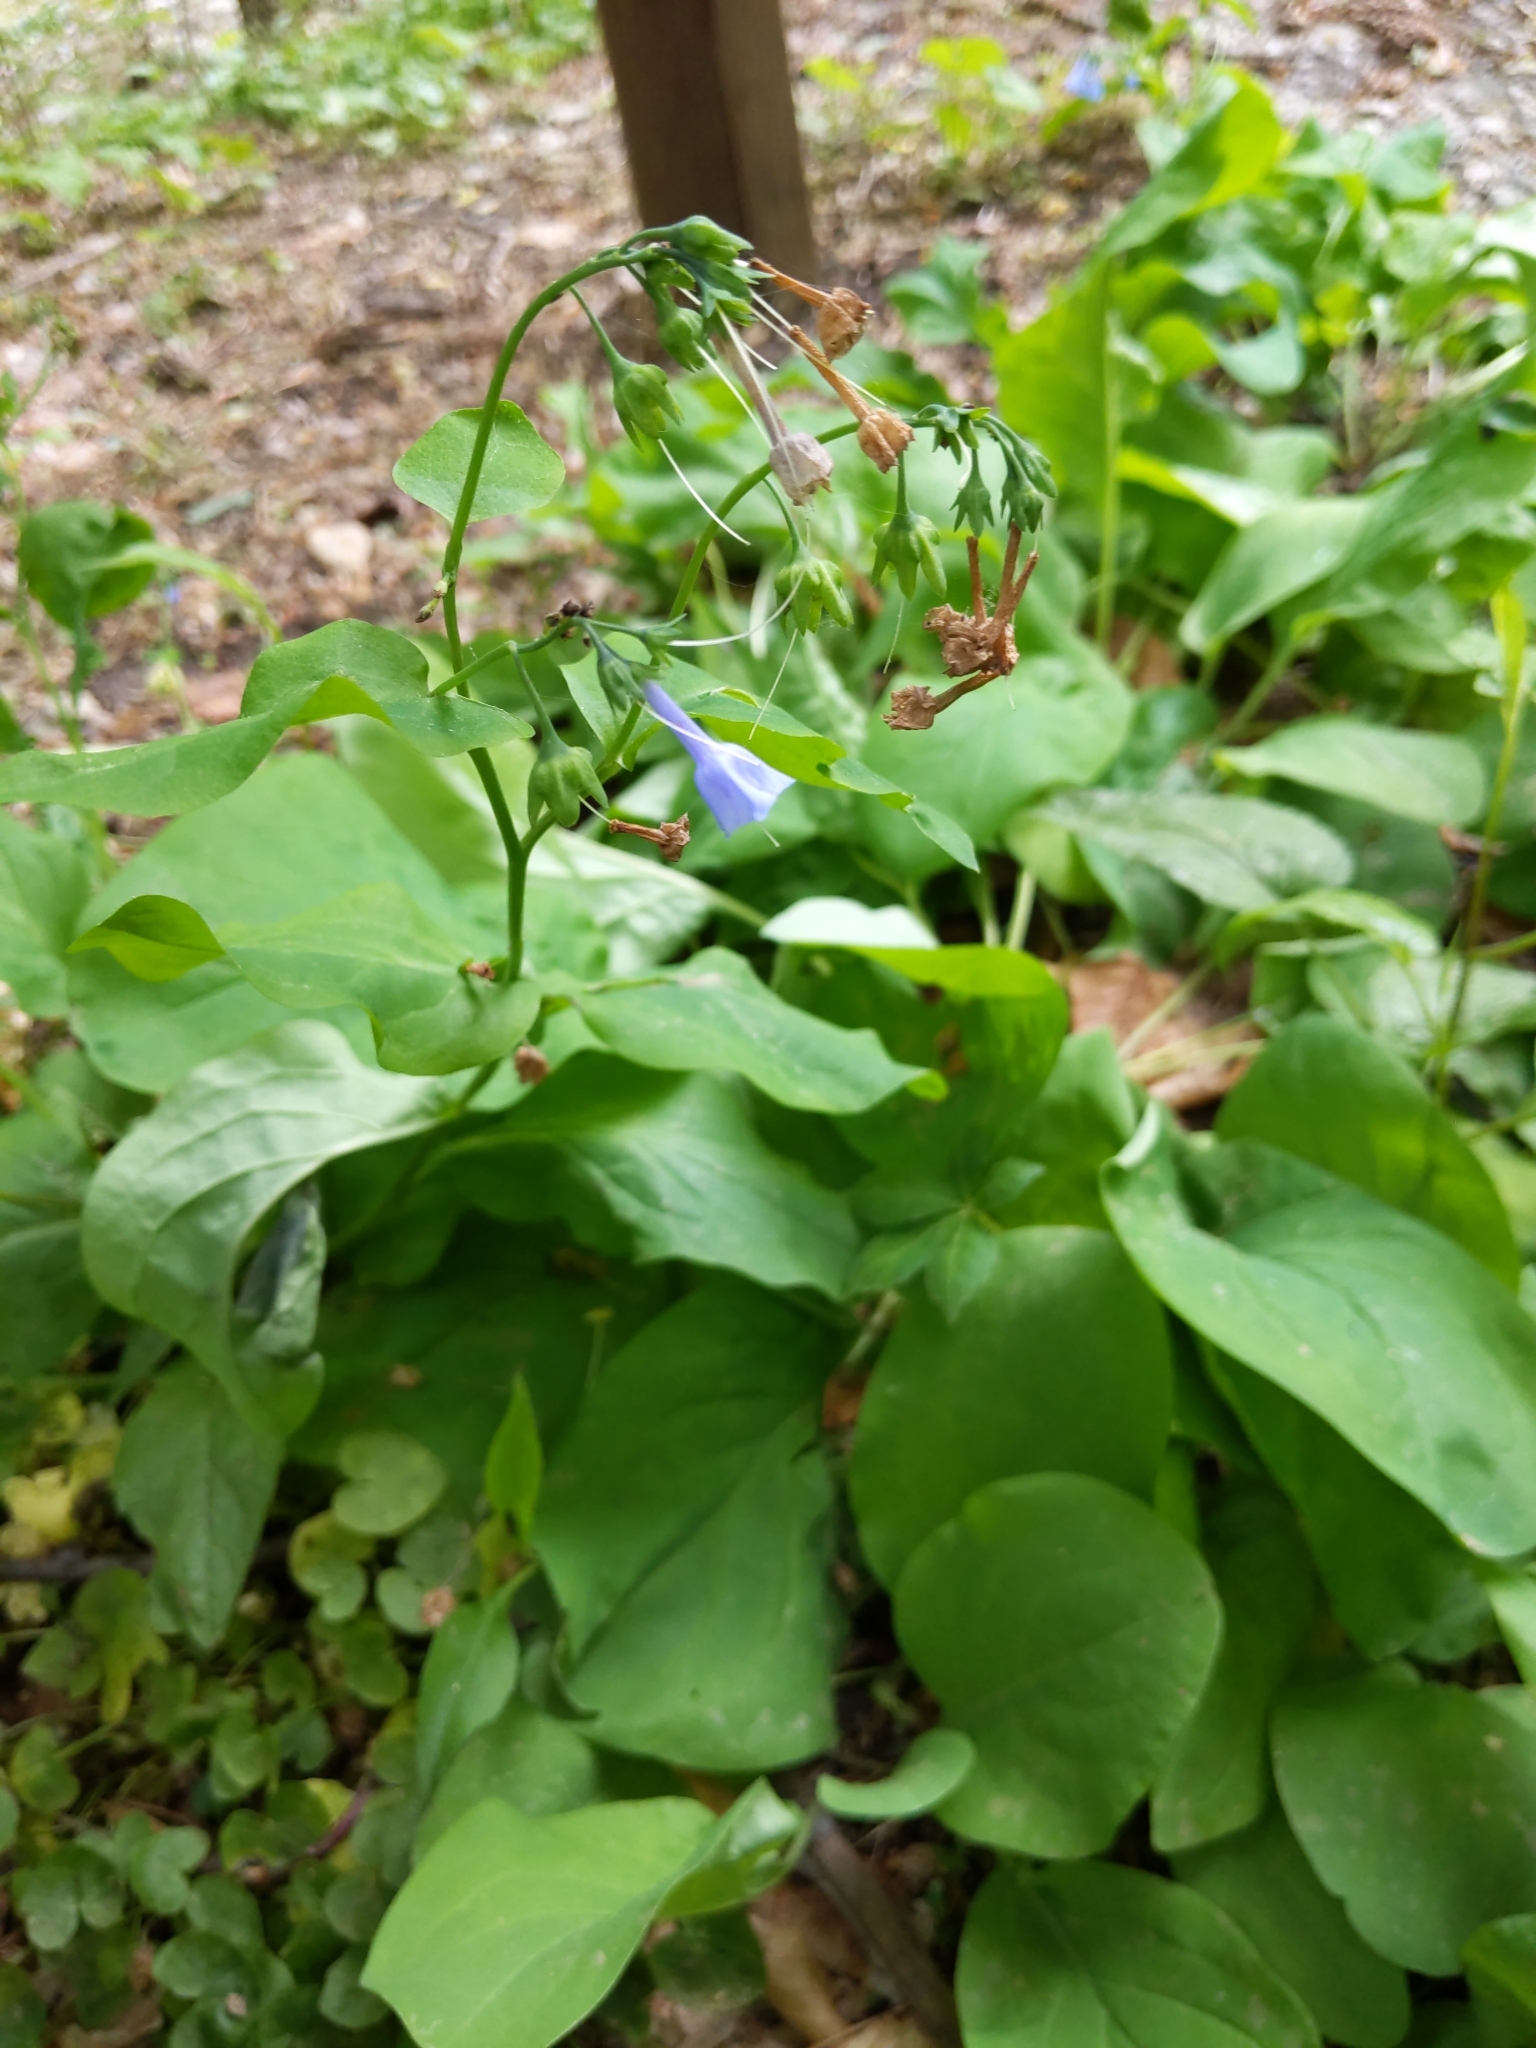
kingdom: Plantae
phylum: Tracheophyta
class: Magnoliopsida
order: Boraginales
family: Boraginaceae
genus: Mertensia
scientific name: Mertensia virginica
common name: Virginia bluebells
